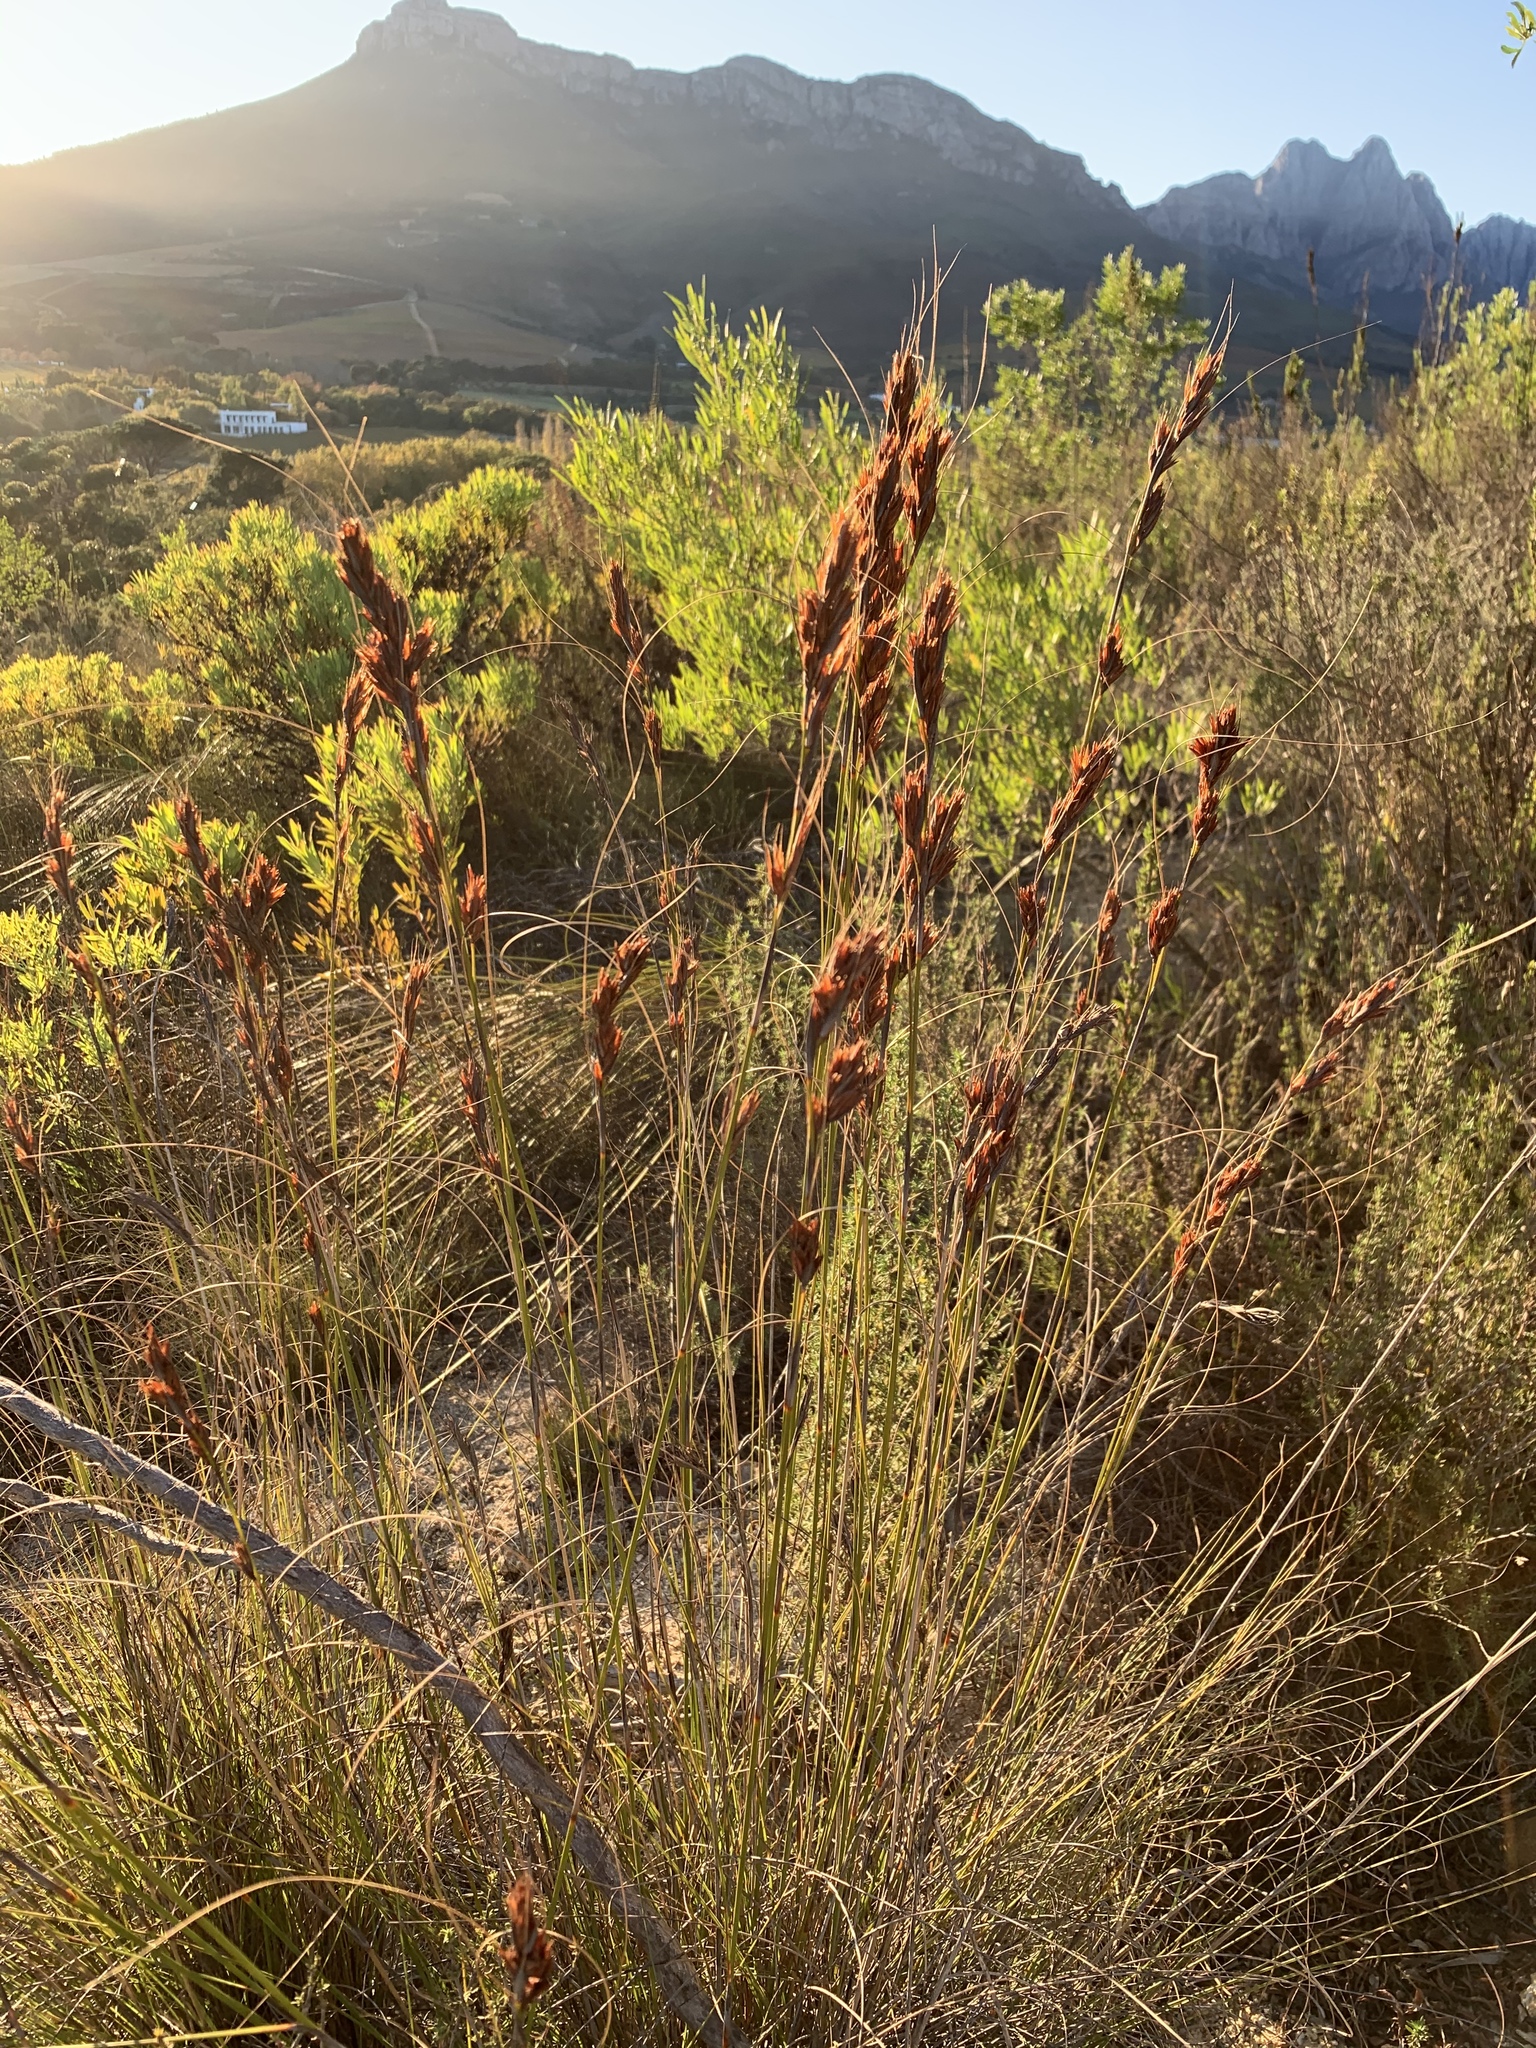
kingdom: Plantae
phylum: Tracheophyta
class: Liliopsida
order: Poales
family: Cyperaceae
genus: Tetraria
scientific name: Tetraria ustulata
